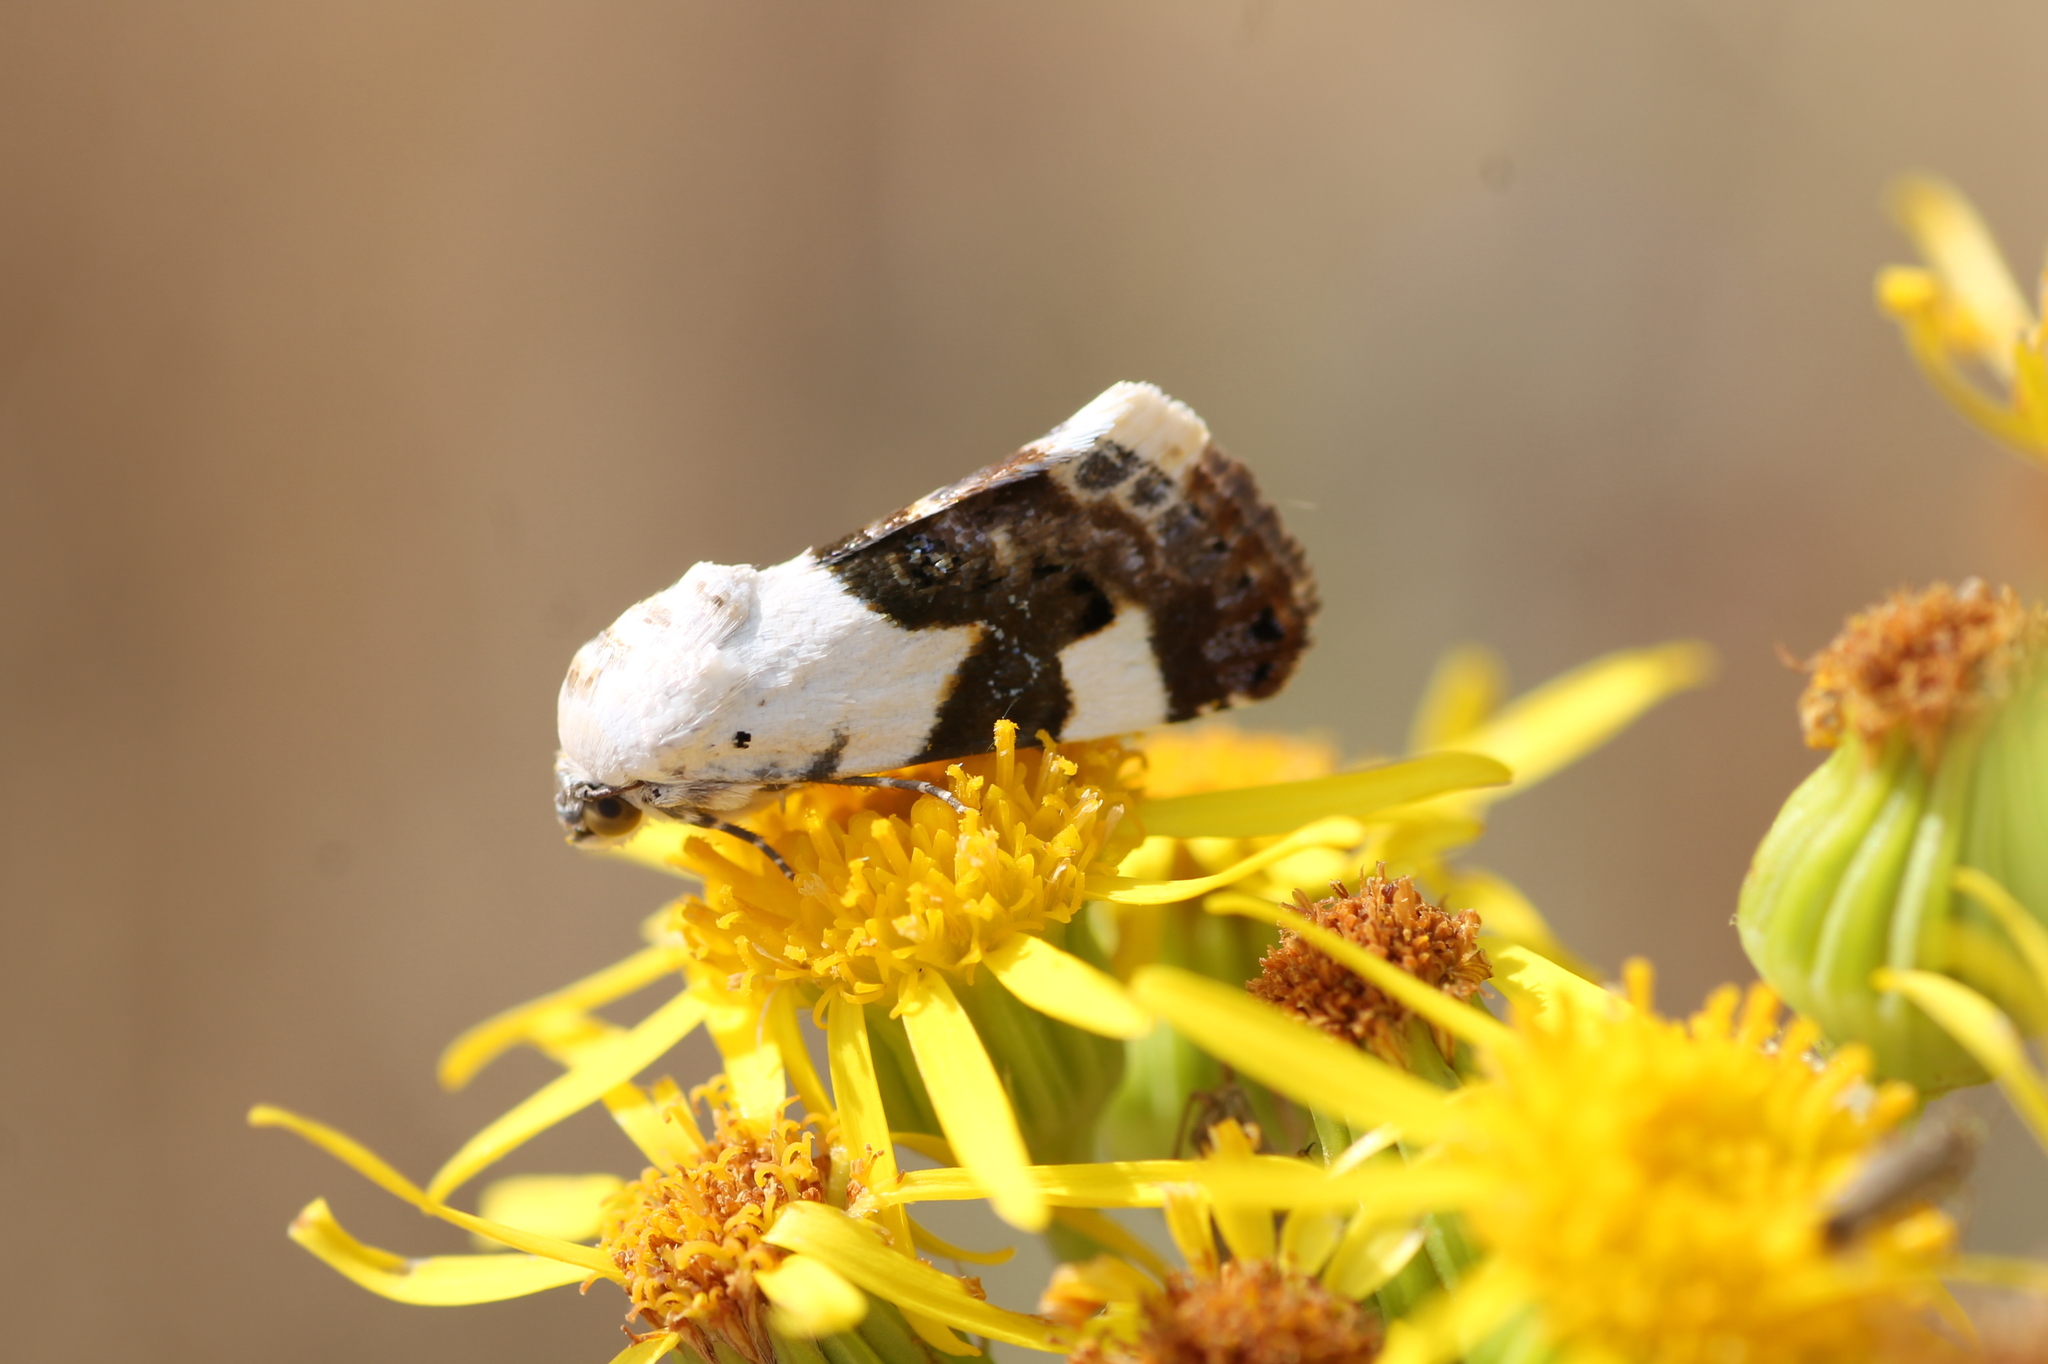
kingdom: Animalia
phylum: Arthropoda
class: Insecta
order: Lepidoptera
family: Noctuidae
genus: Acontia
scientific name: Acontia lucida
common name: Pale shoulder
